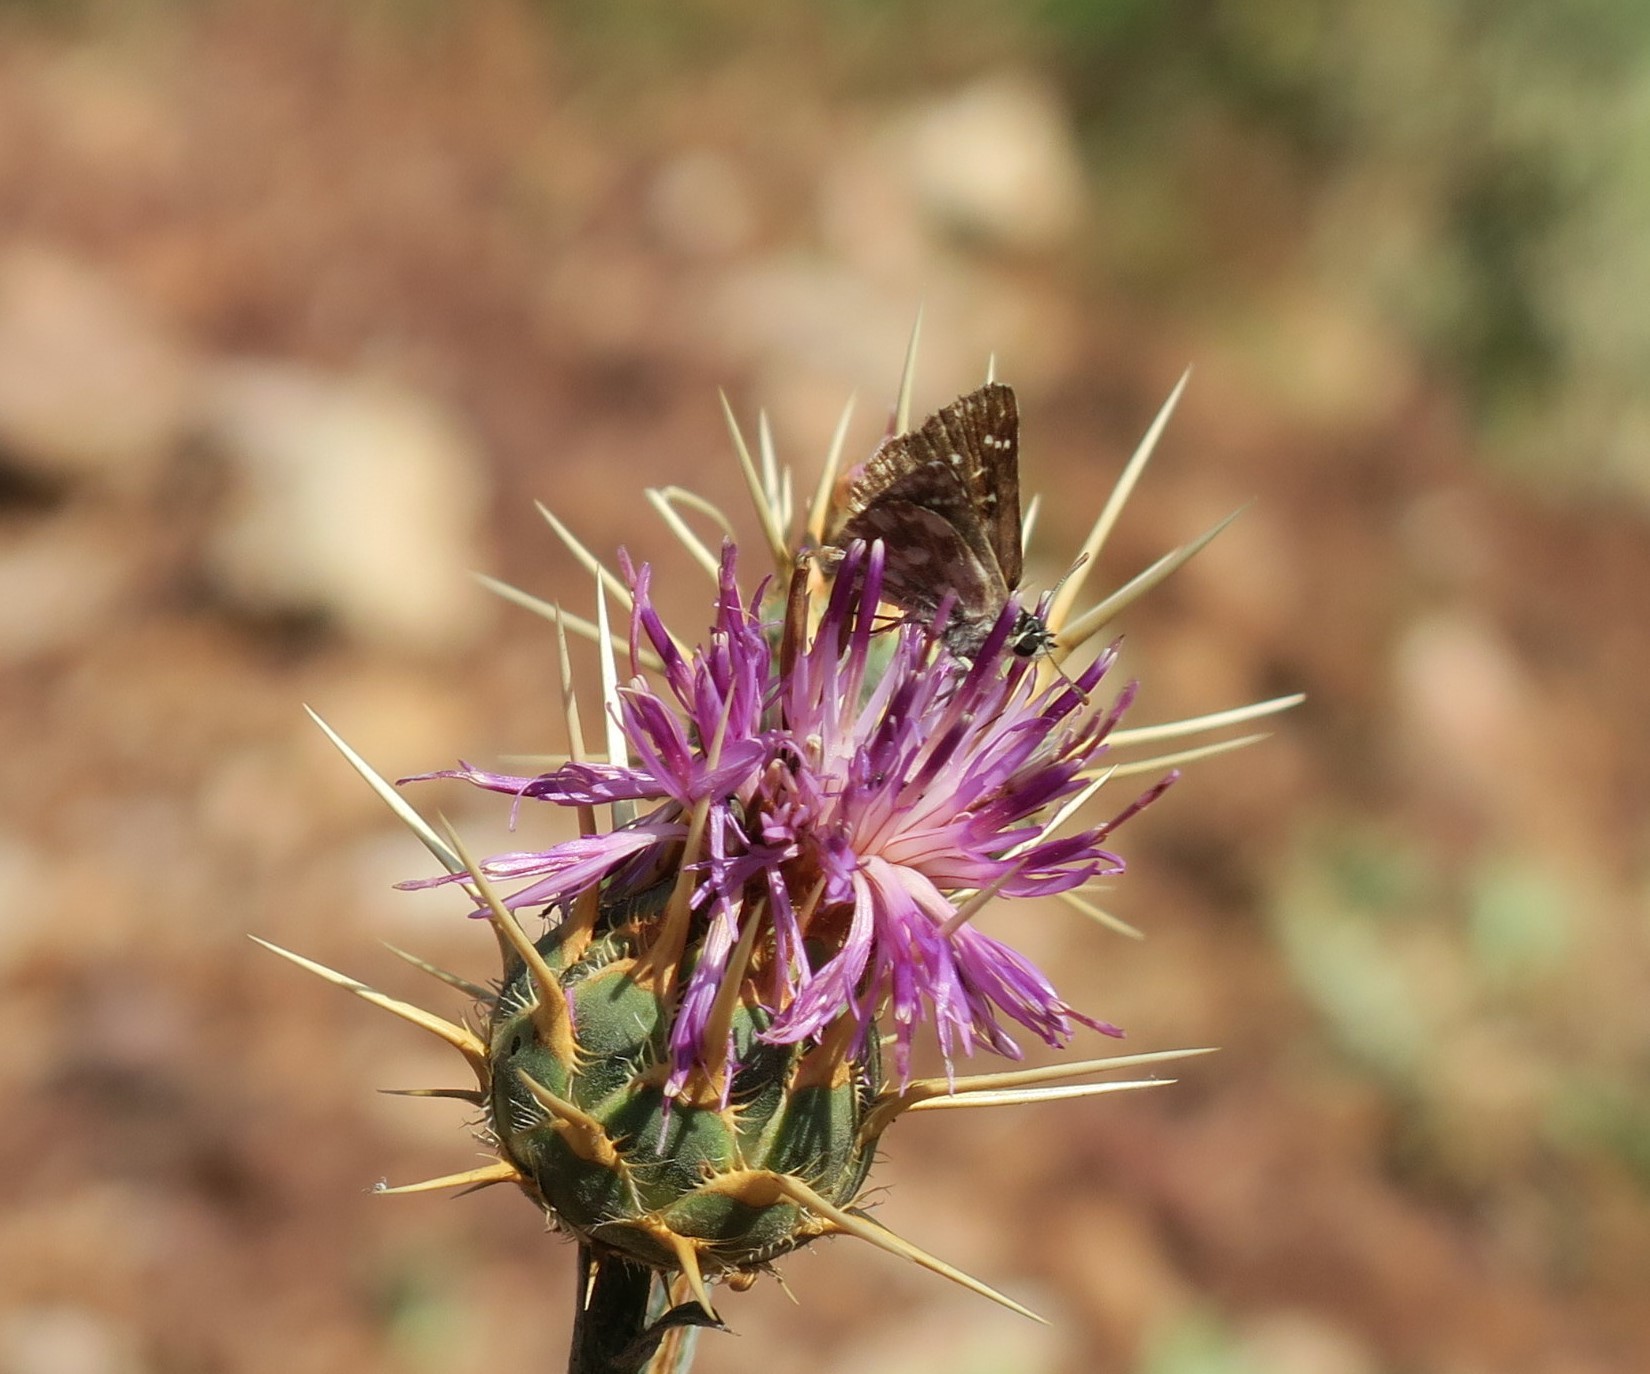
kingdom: Animalia
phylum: Arthropoda
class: Insecta
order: Lepidoptera
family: Hesperiidae
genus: Spialia
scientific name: Spialia sertorius
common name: Red underwing skipper
